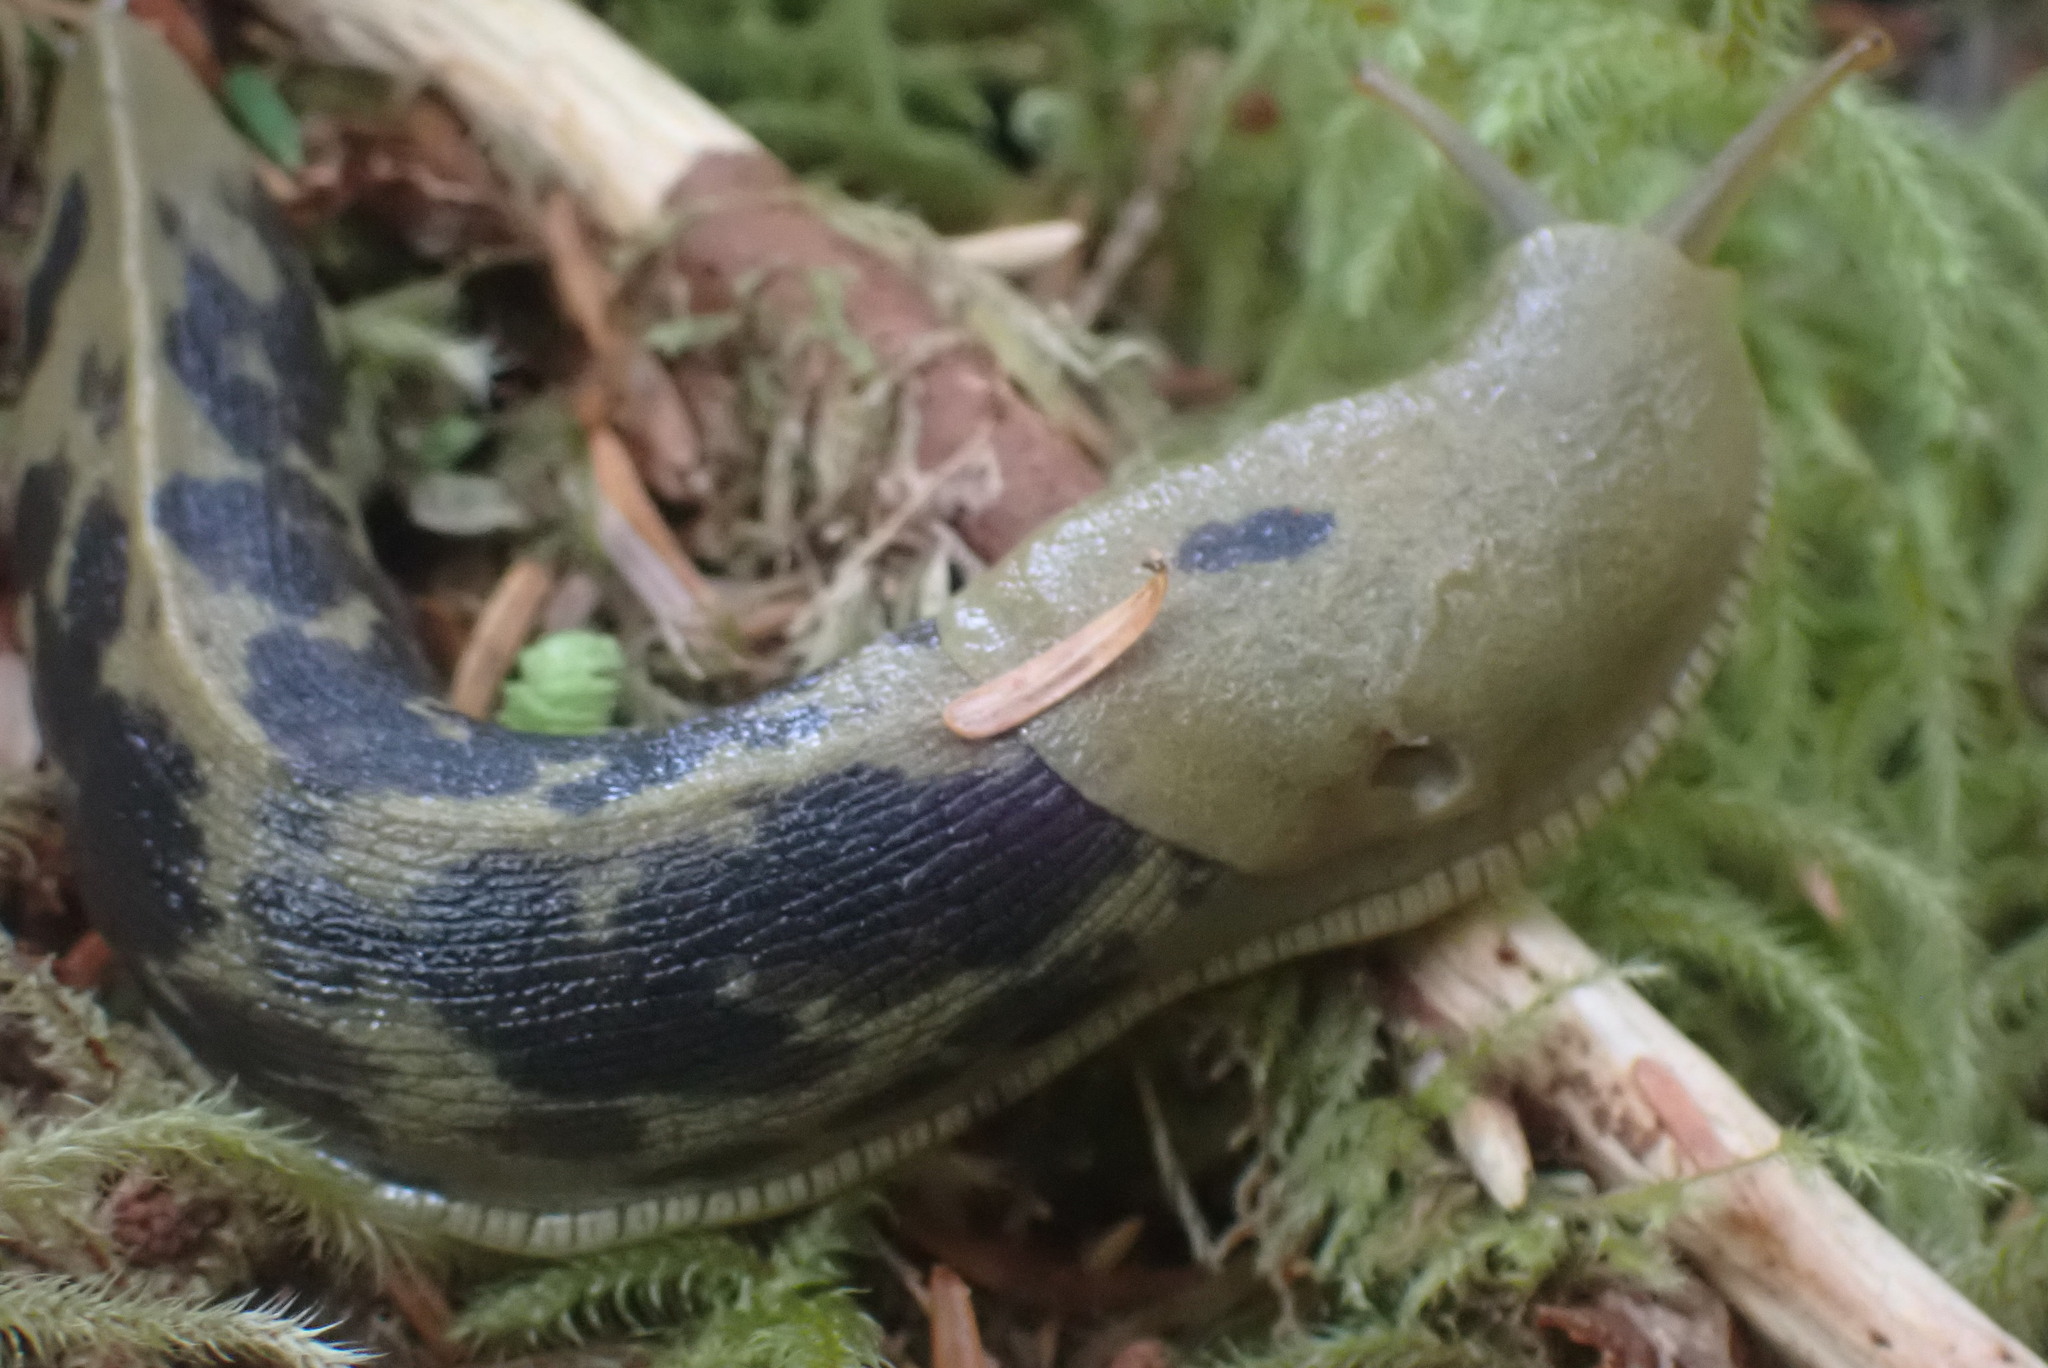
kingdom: Animalia
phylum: Mollusca
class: Gastropoda
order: Stylommatophora
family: Ariolimacidae
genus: Ariolimax
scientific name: Ariolimax columbianus
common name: Pacific banana slug
